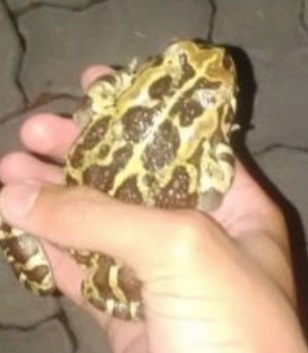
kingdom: Animalia
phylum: Chordata
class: Amphibia
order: Anura
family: Bufonidae
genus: Sclerophrys
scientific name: Sclerophrys pantherina
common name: Panther toad
